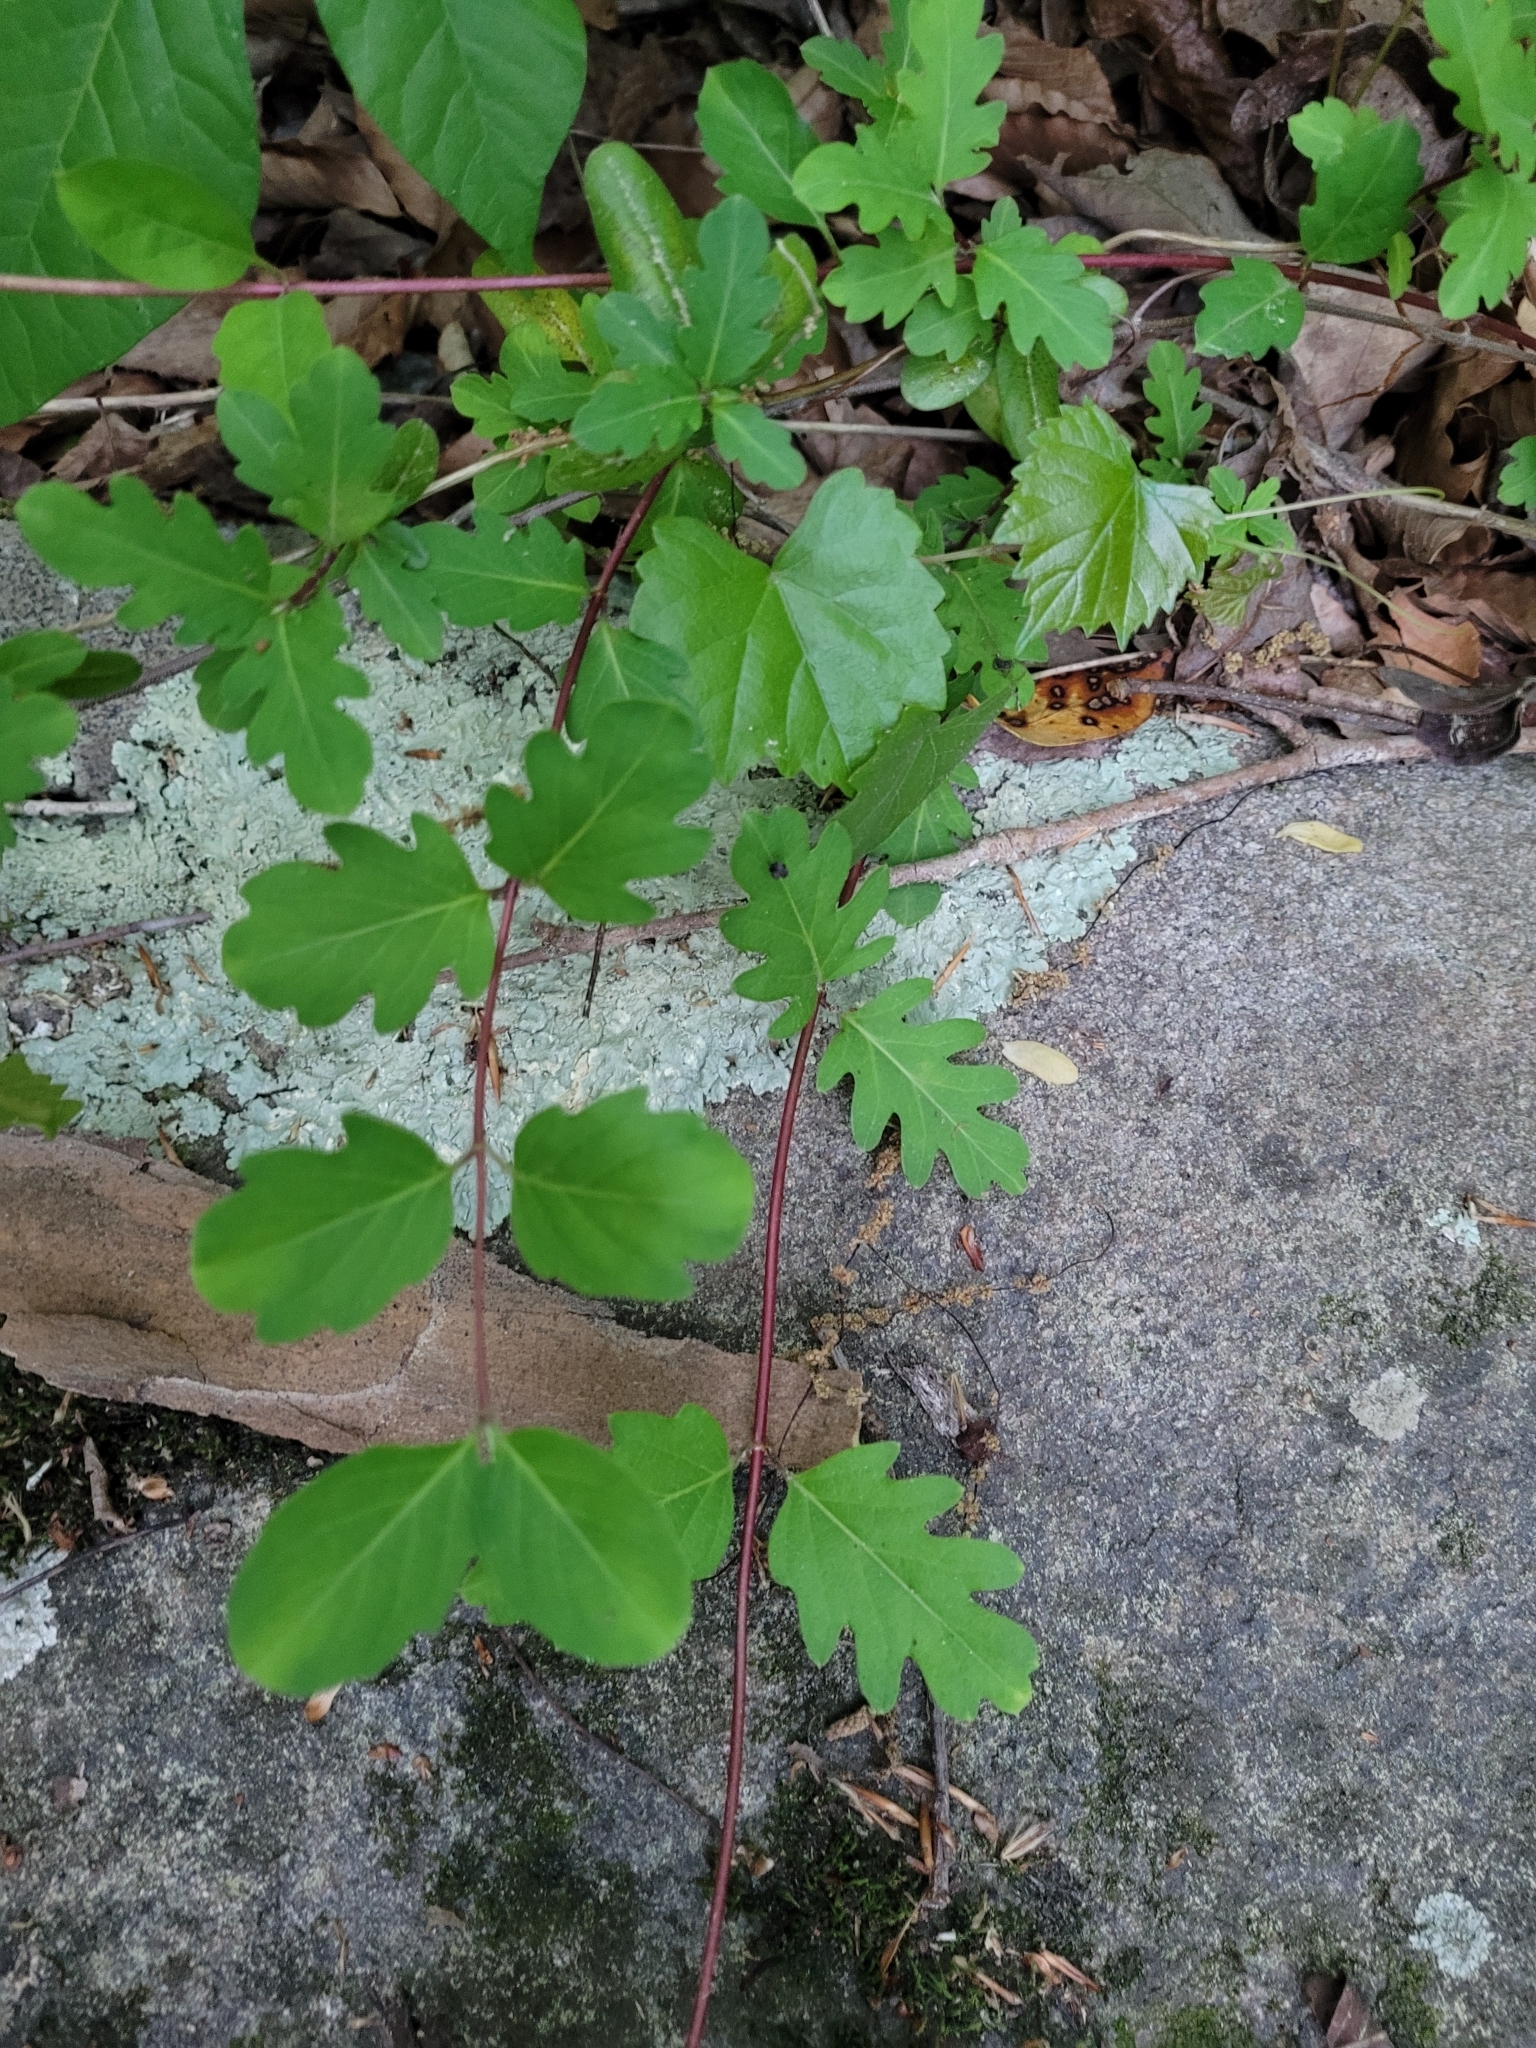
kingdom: Plantae
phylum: Tracheophyta
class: Magnoliopsida
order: Dipsacales
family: Caprifoliaceae
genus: Lonicera
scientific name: Lonicera japonica
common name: Japanese honeysuckle
